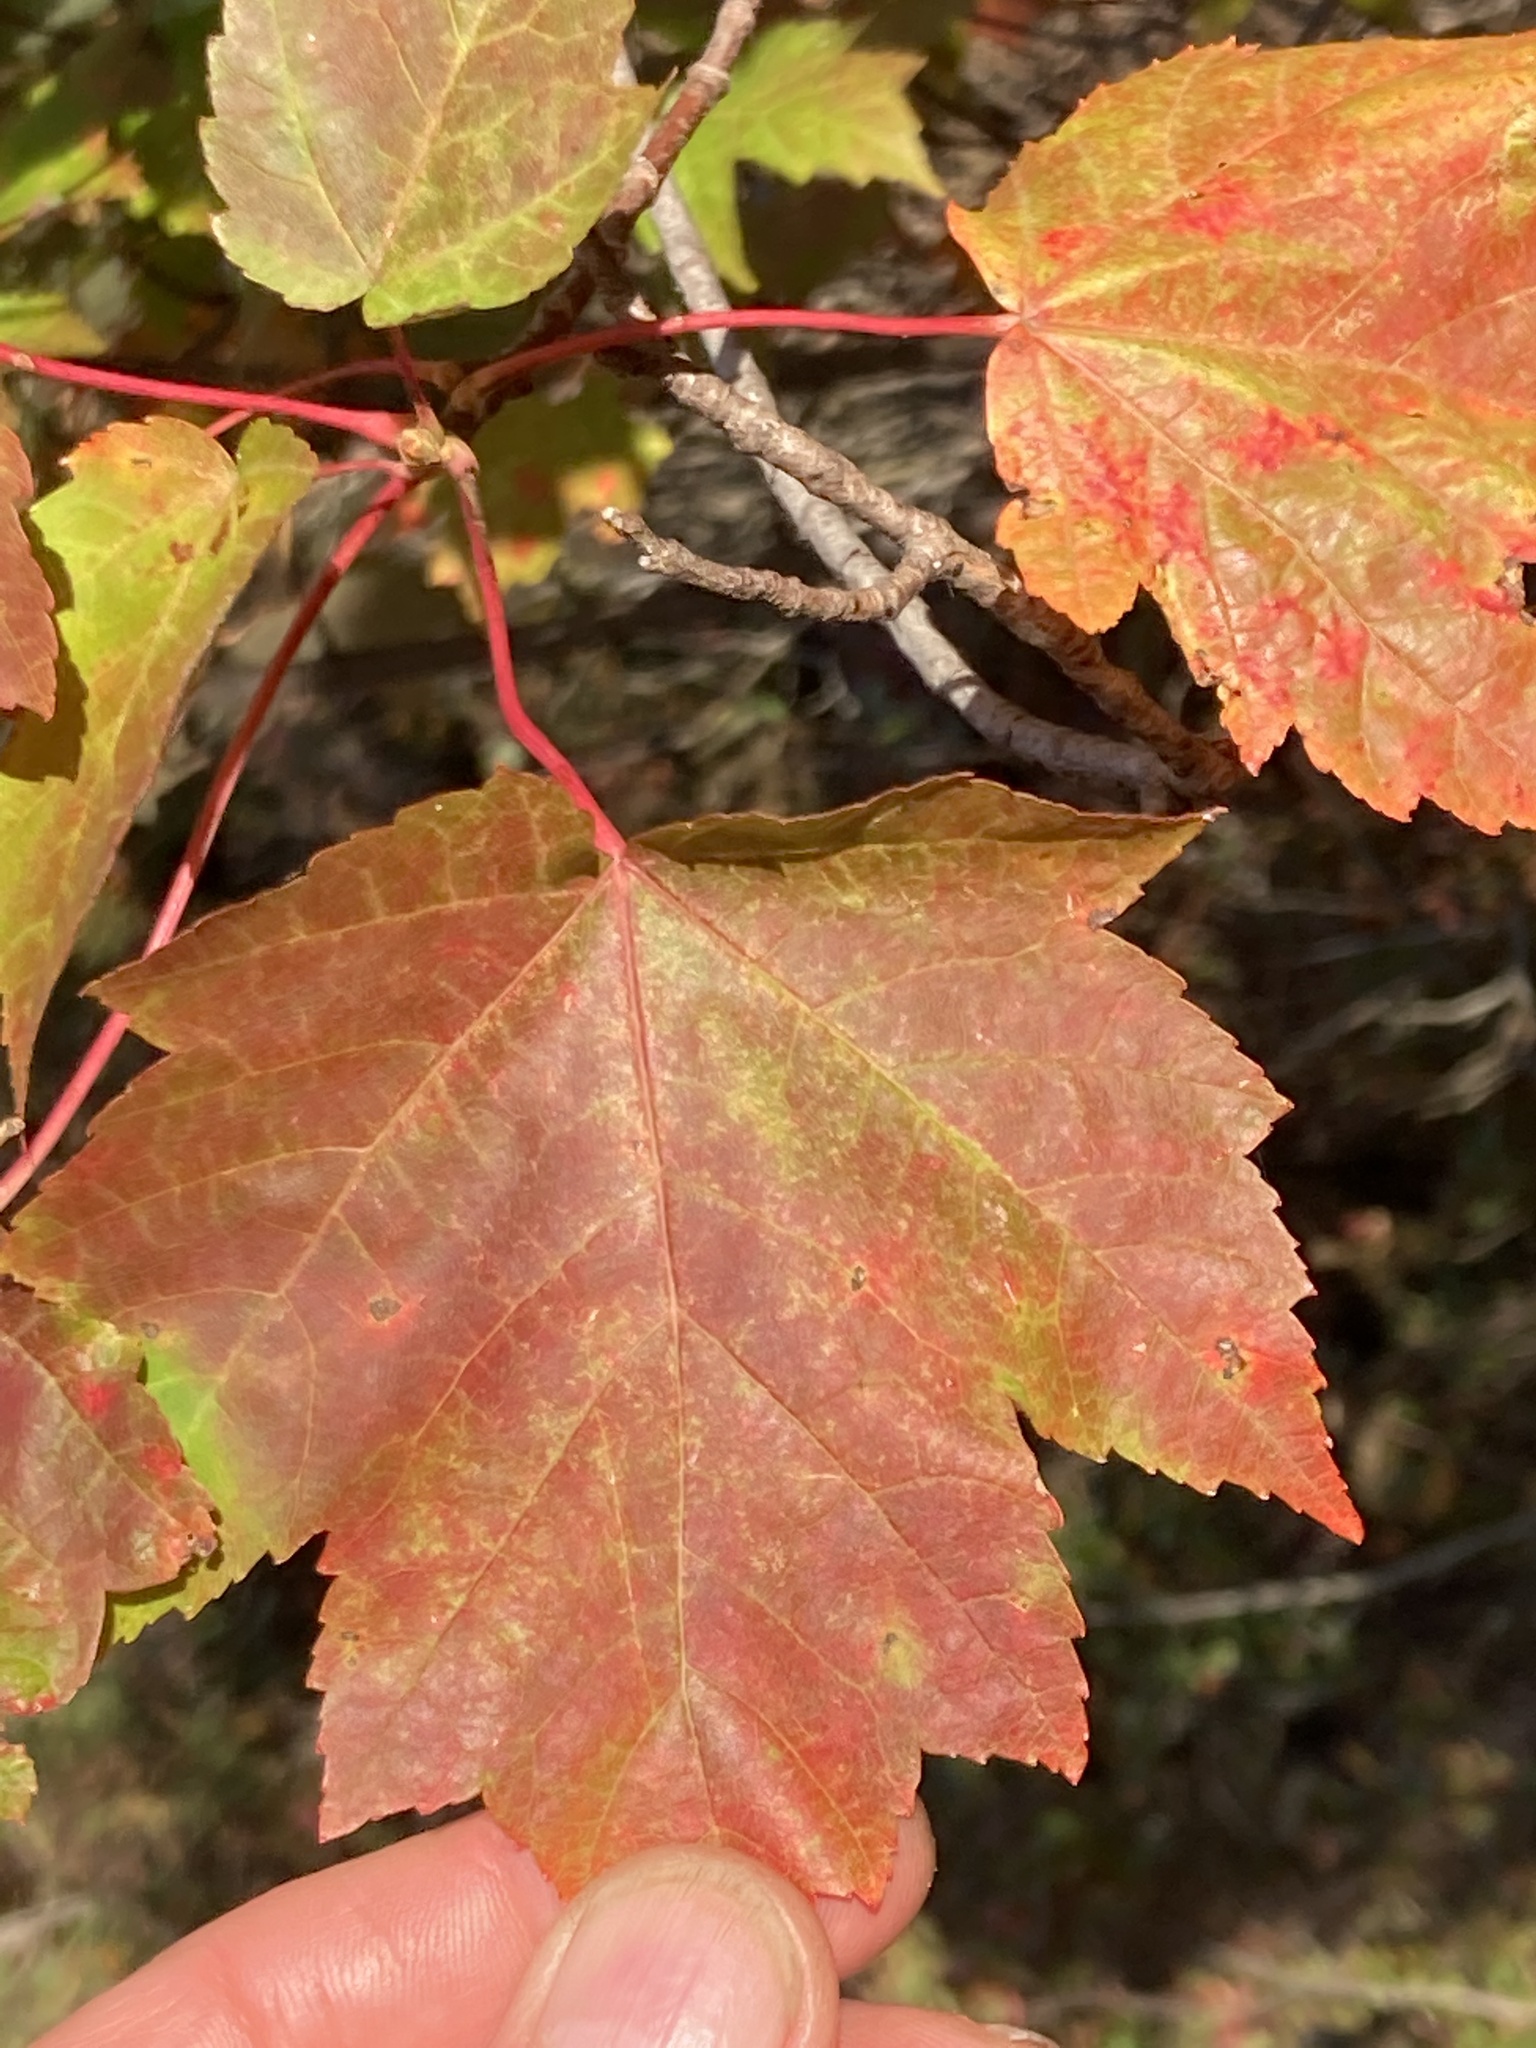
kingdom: Plantae
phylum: Tracheophyta
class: Magnoliopsida
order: Sapindales
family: Sapindaceae
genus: Acer
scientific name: Acer rubrum
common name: Red maple
